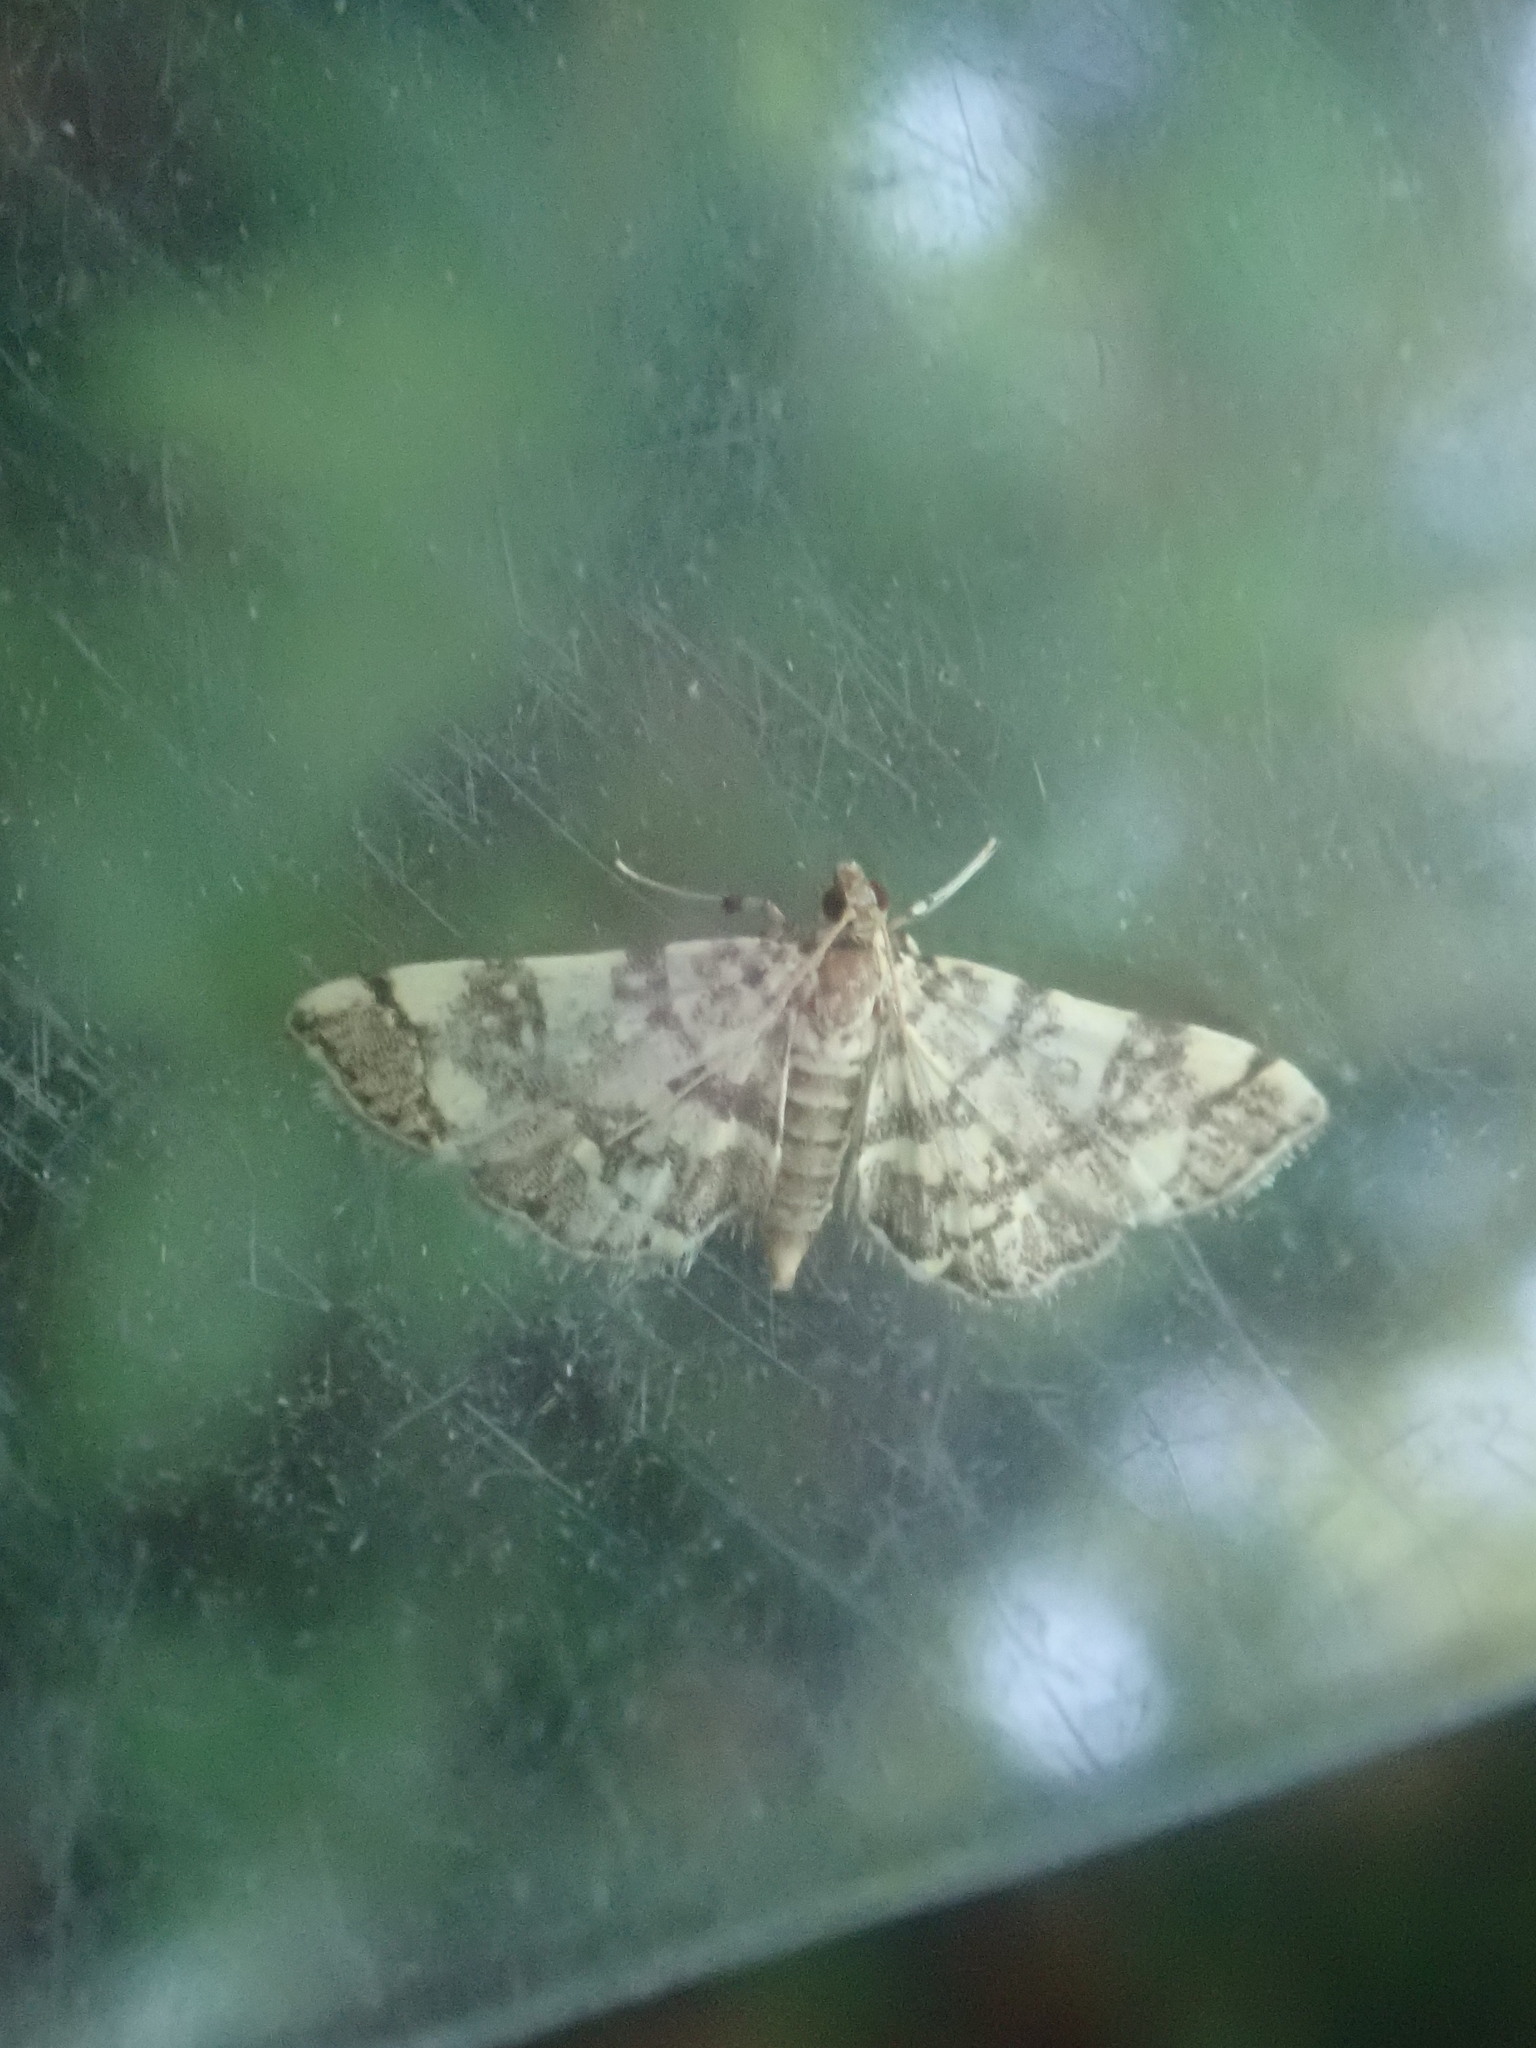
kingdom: Animalia
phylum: Arthropoda
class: Insecta
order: Lepidoptera
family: Crambidae
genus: Apogeshna
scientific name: Apogeshna stenialis
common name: Checkered apogeshna moth
